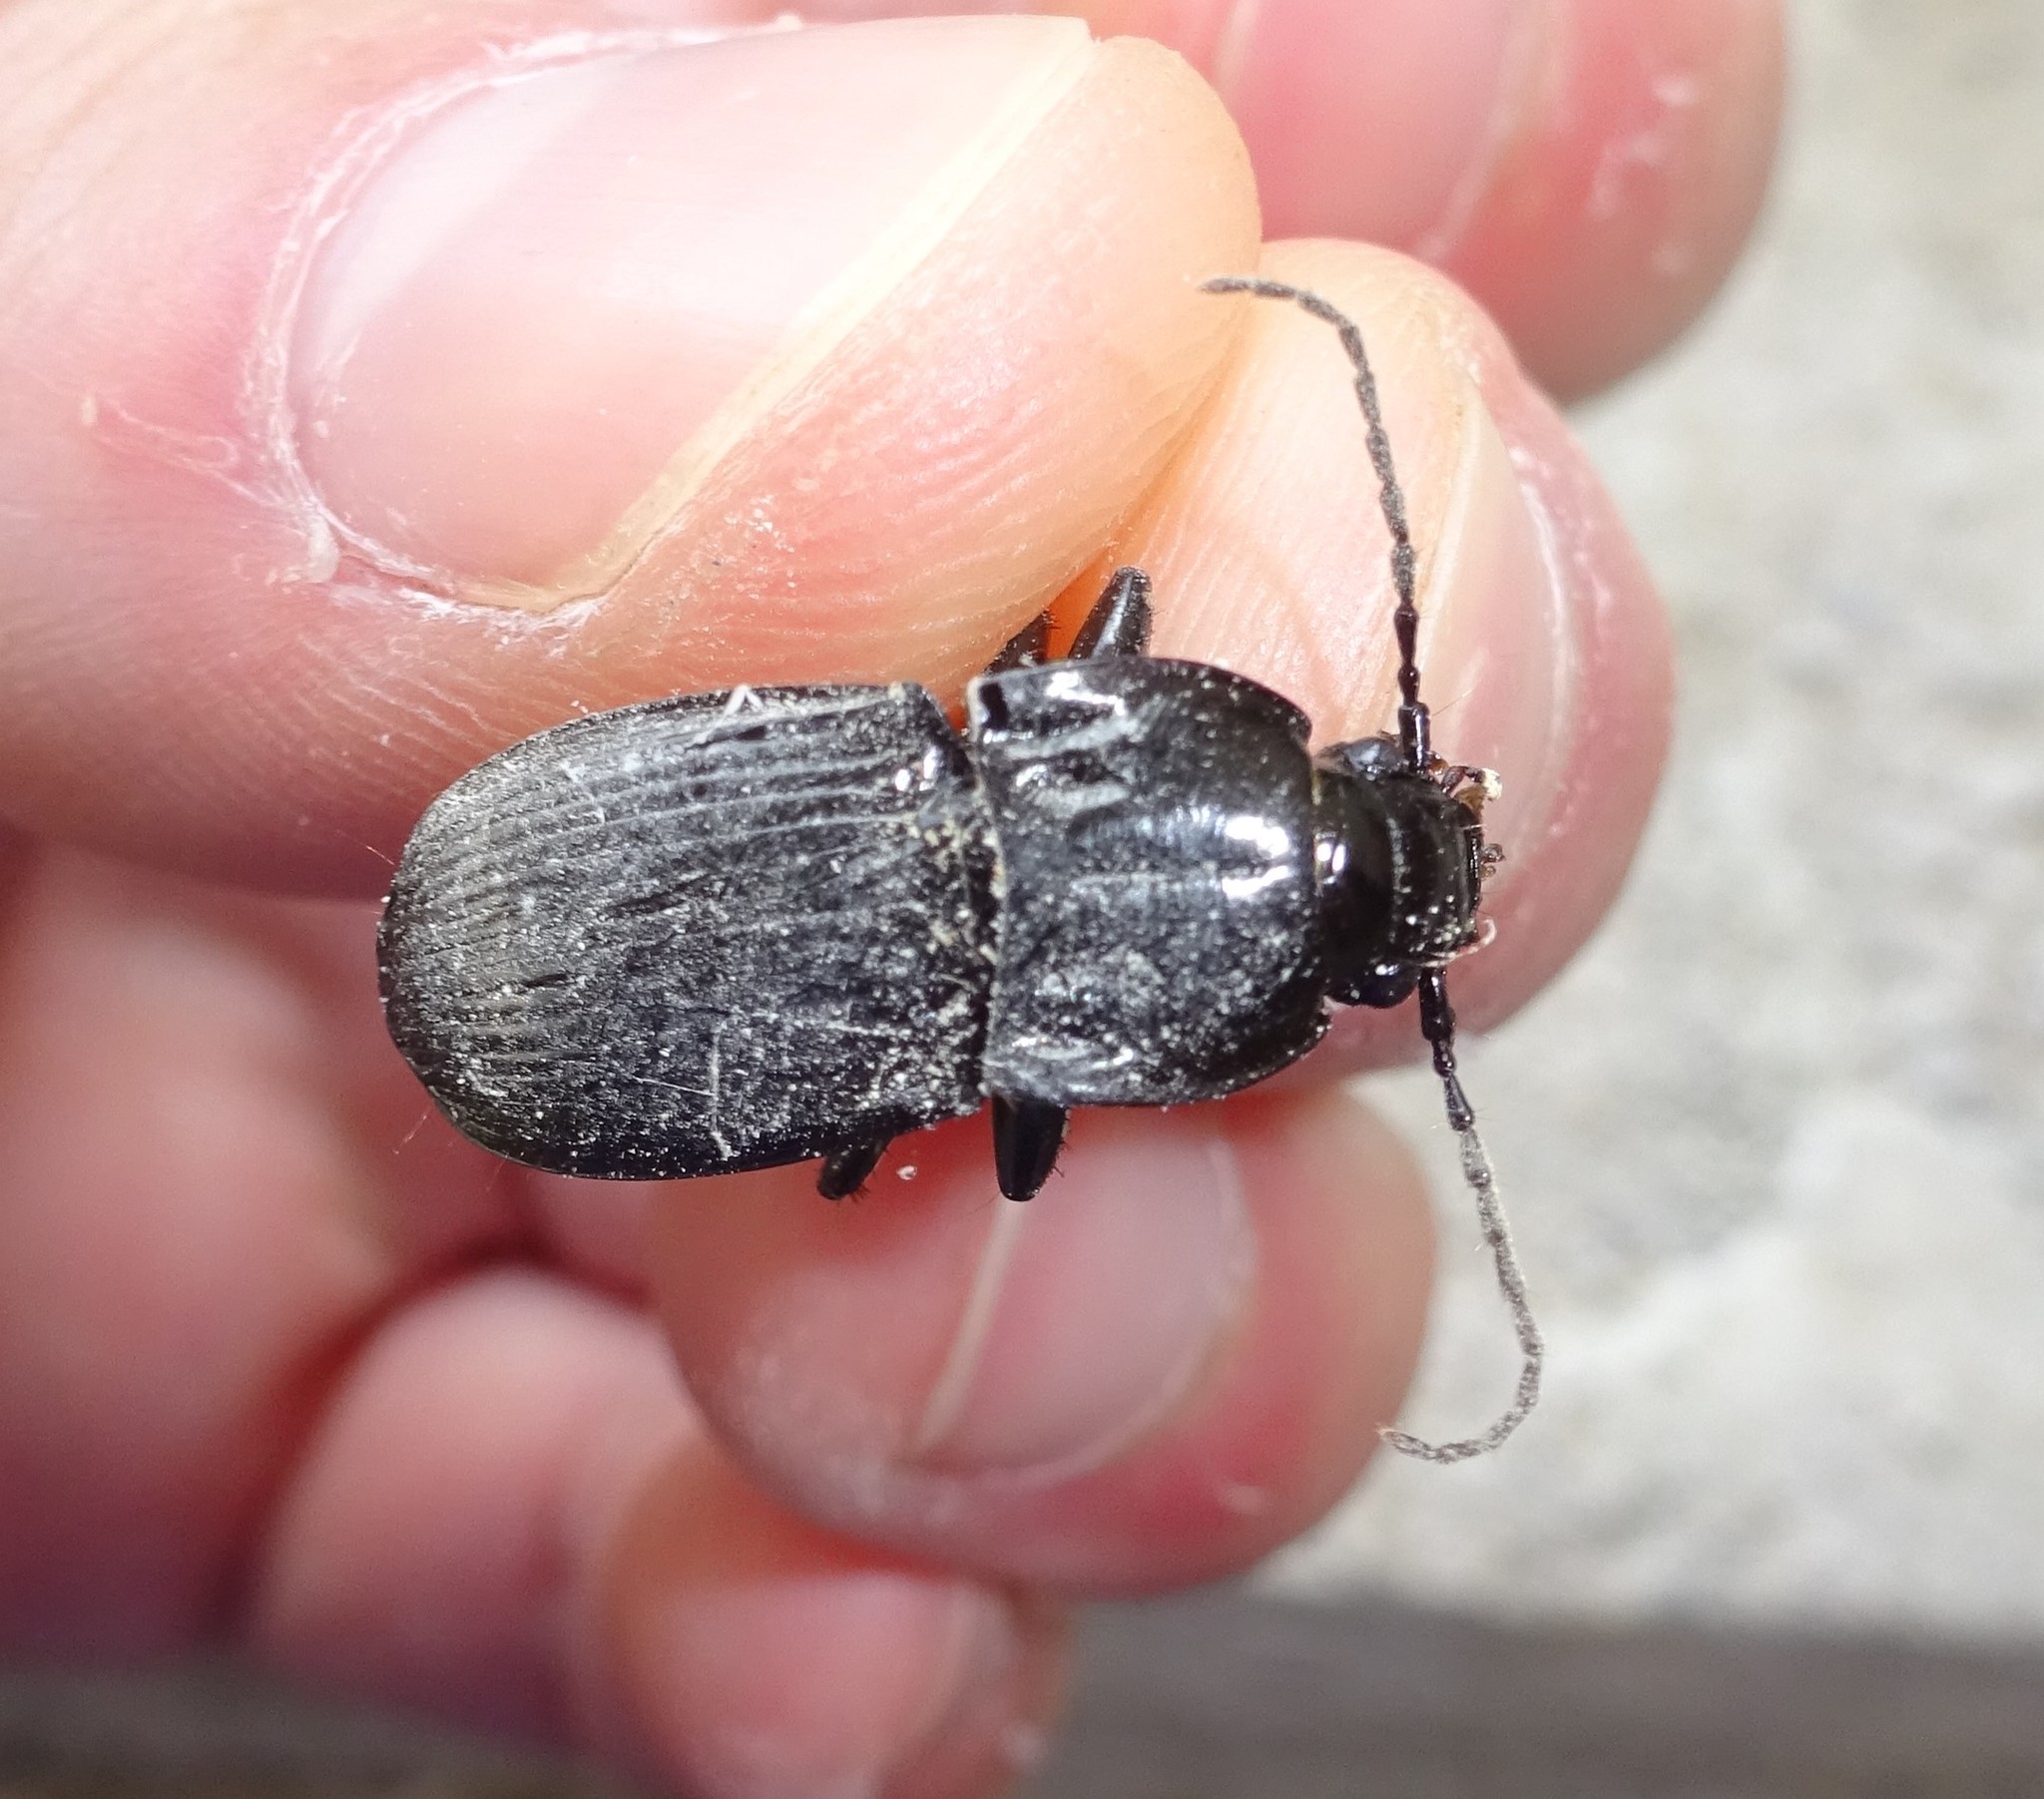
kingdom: Animalia
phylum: Arthropoda
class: Insecta
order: Coleoptera
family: Carabidae
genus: Abax
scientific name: Abax parallelepipedus
